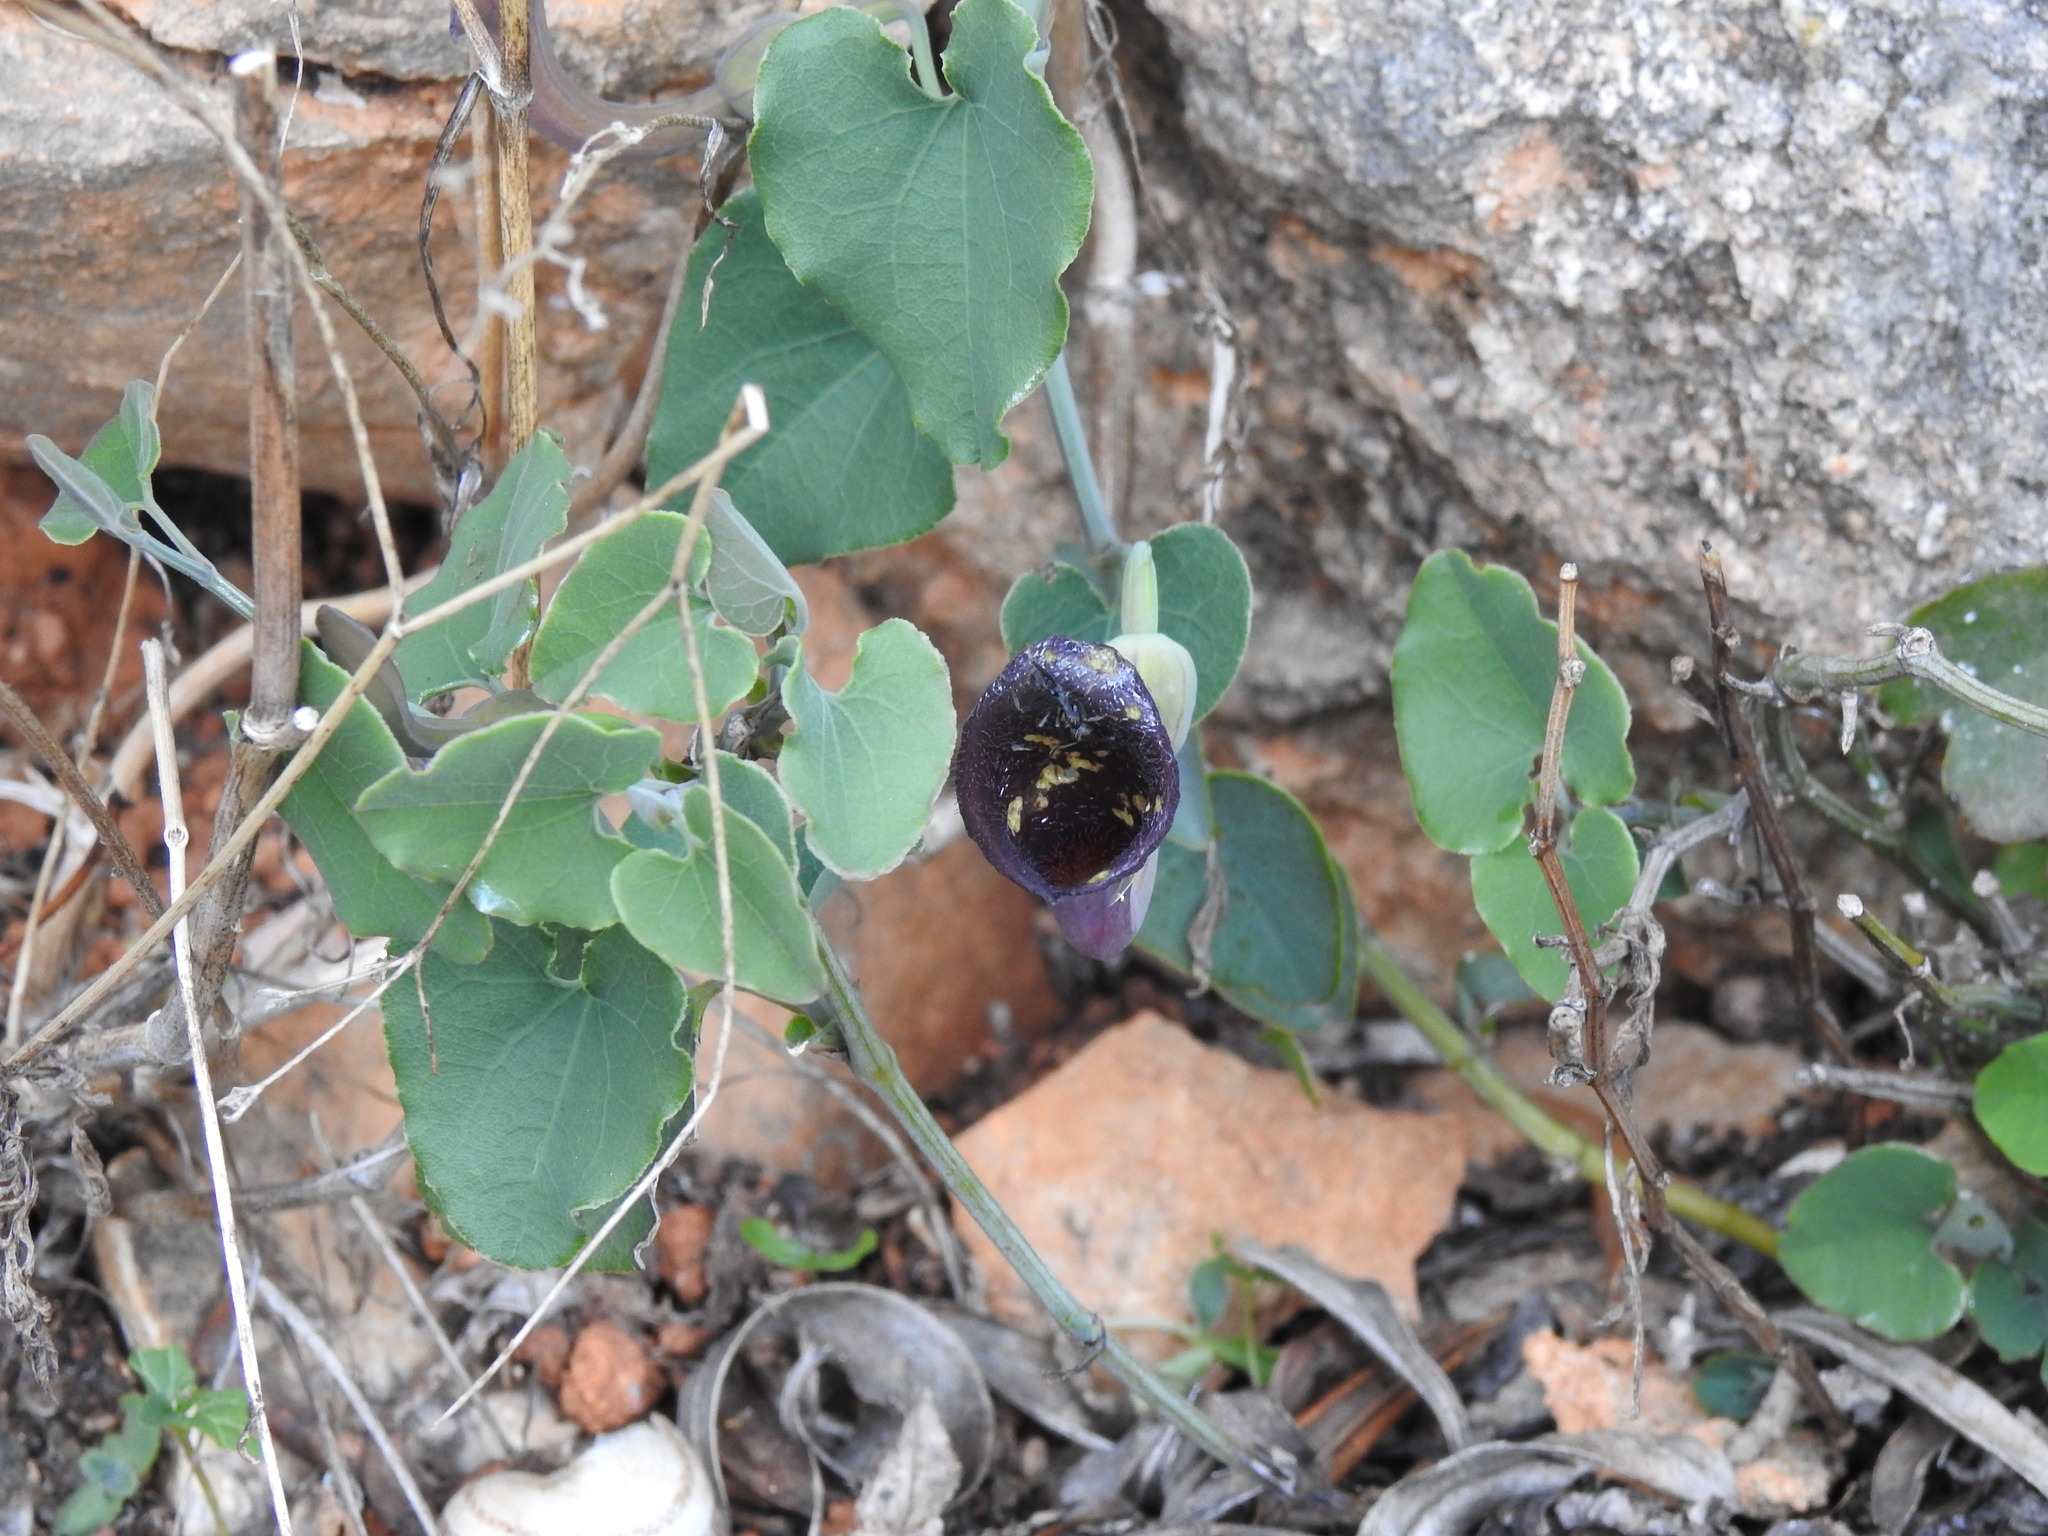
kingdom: Plantae
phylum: Tracheophyta
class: Magnoliopsida
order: Piperales
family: Aristolochiaceae
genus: Aristolochia
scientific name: Aristolochia baetica
